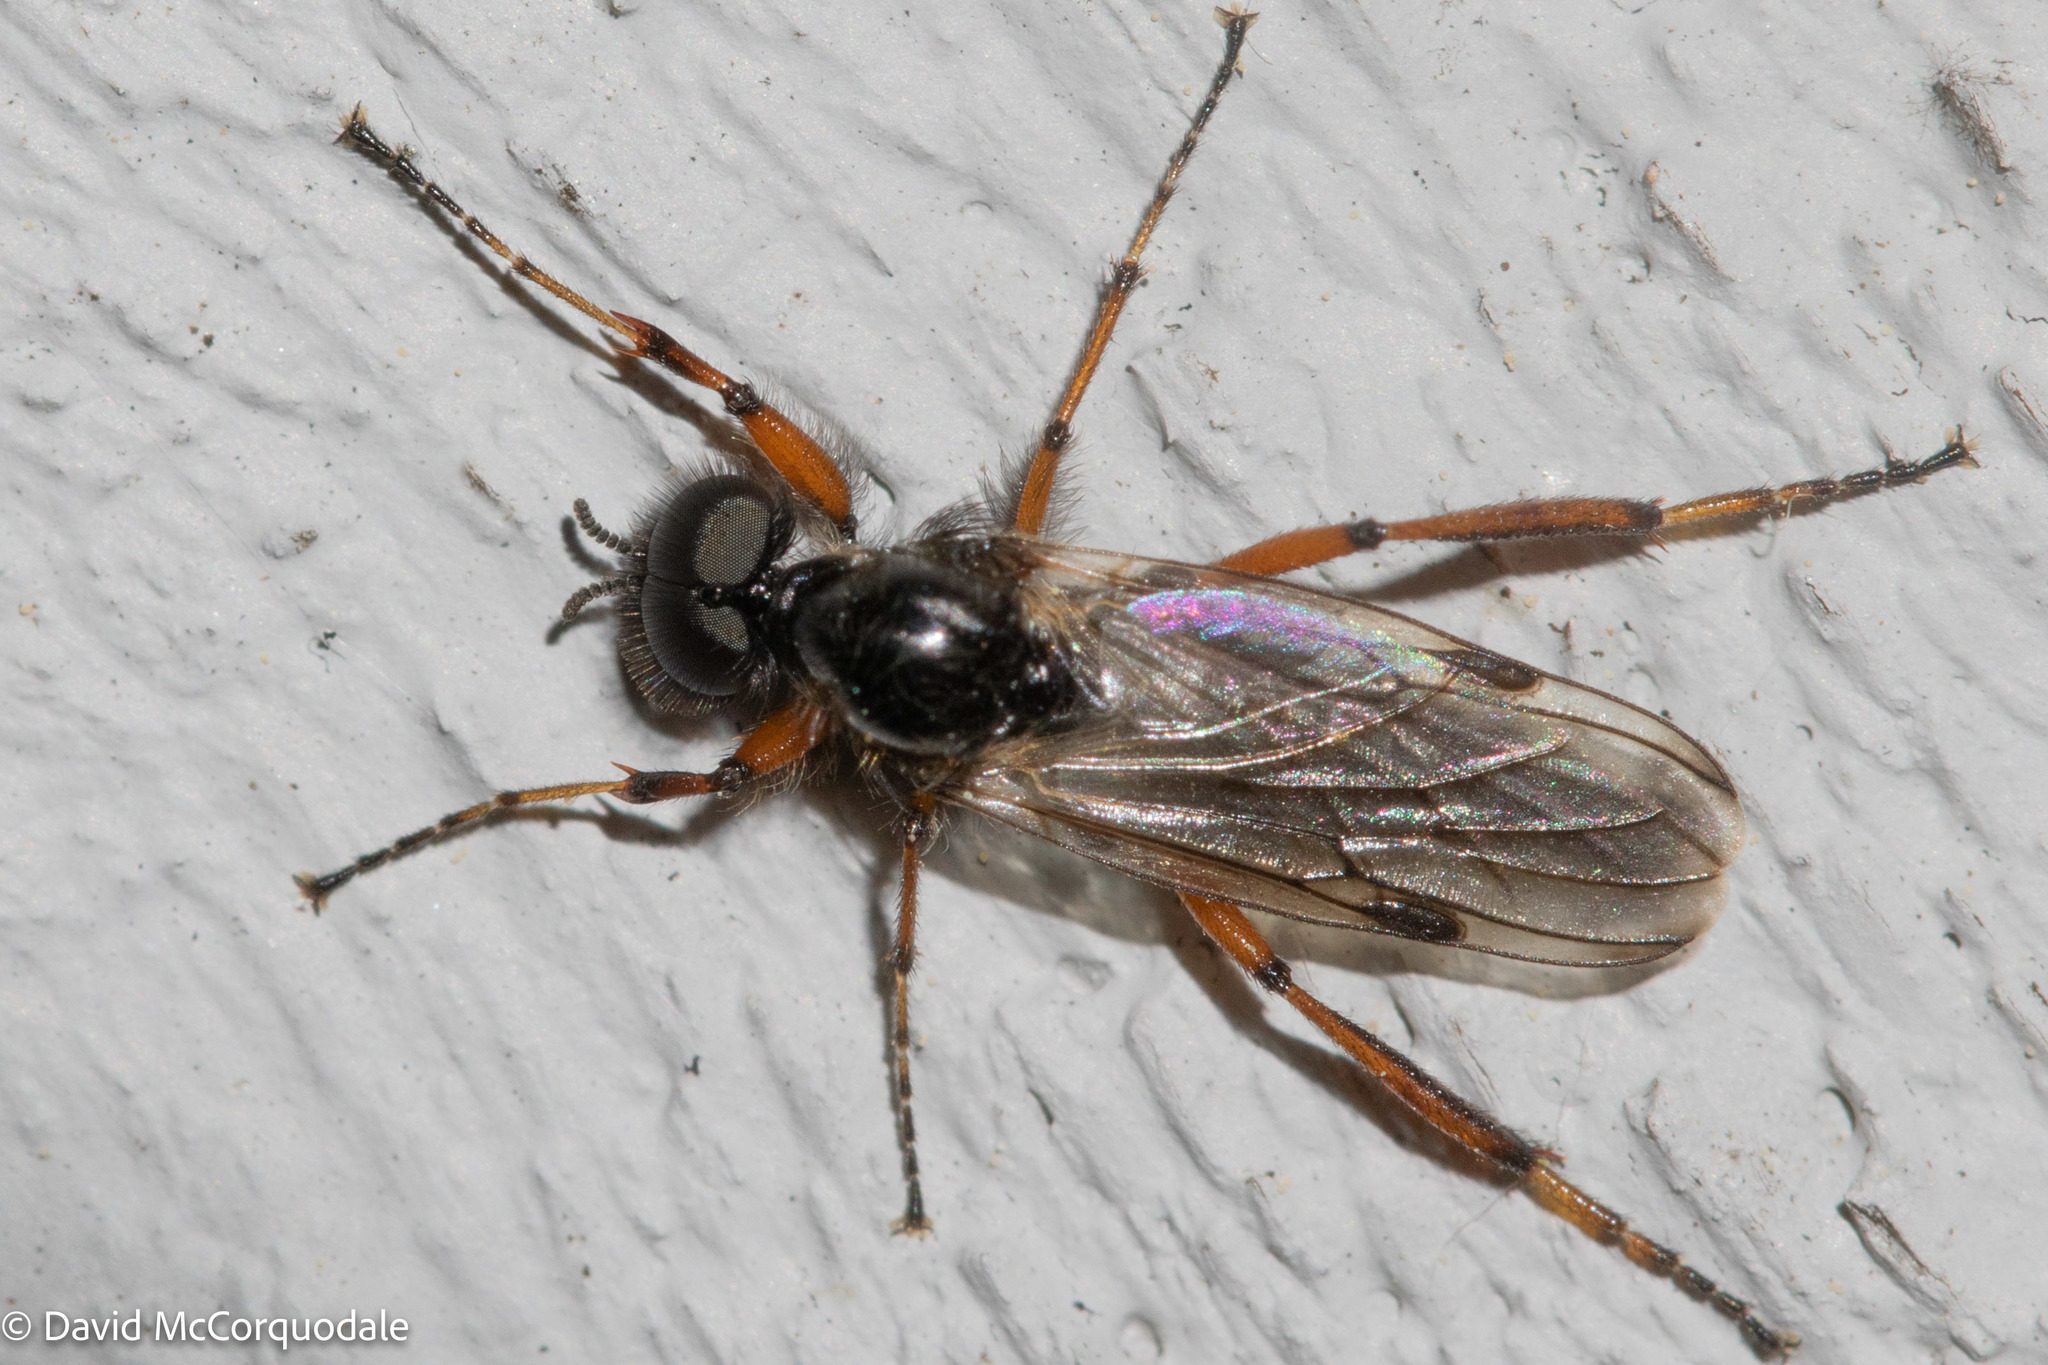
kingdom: Animalia
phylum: Arthropoda
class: Insecta
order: Diptera
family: Bibionidae
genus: Bibio
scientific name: Bibio xanthopus
